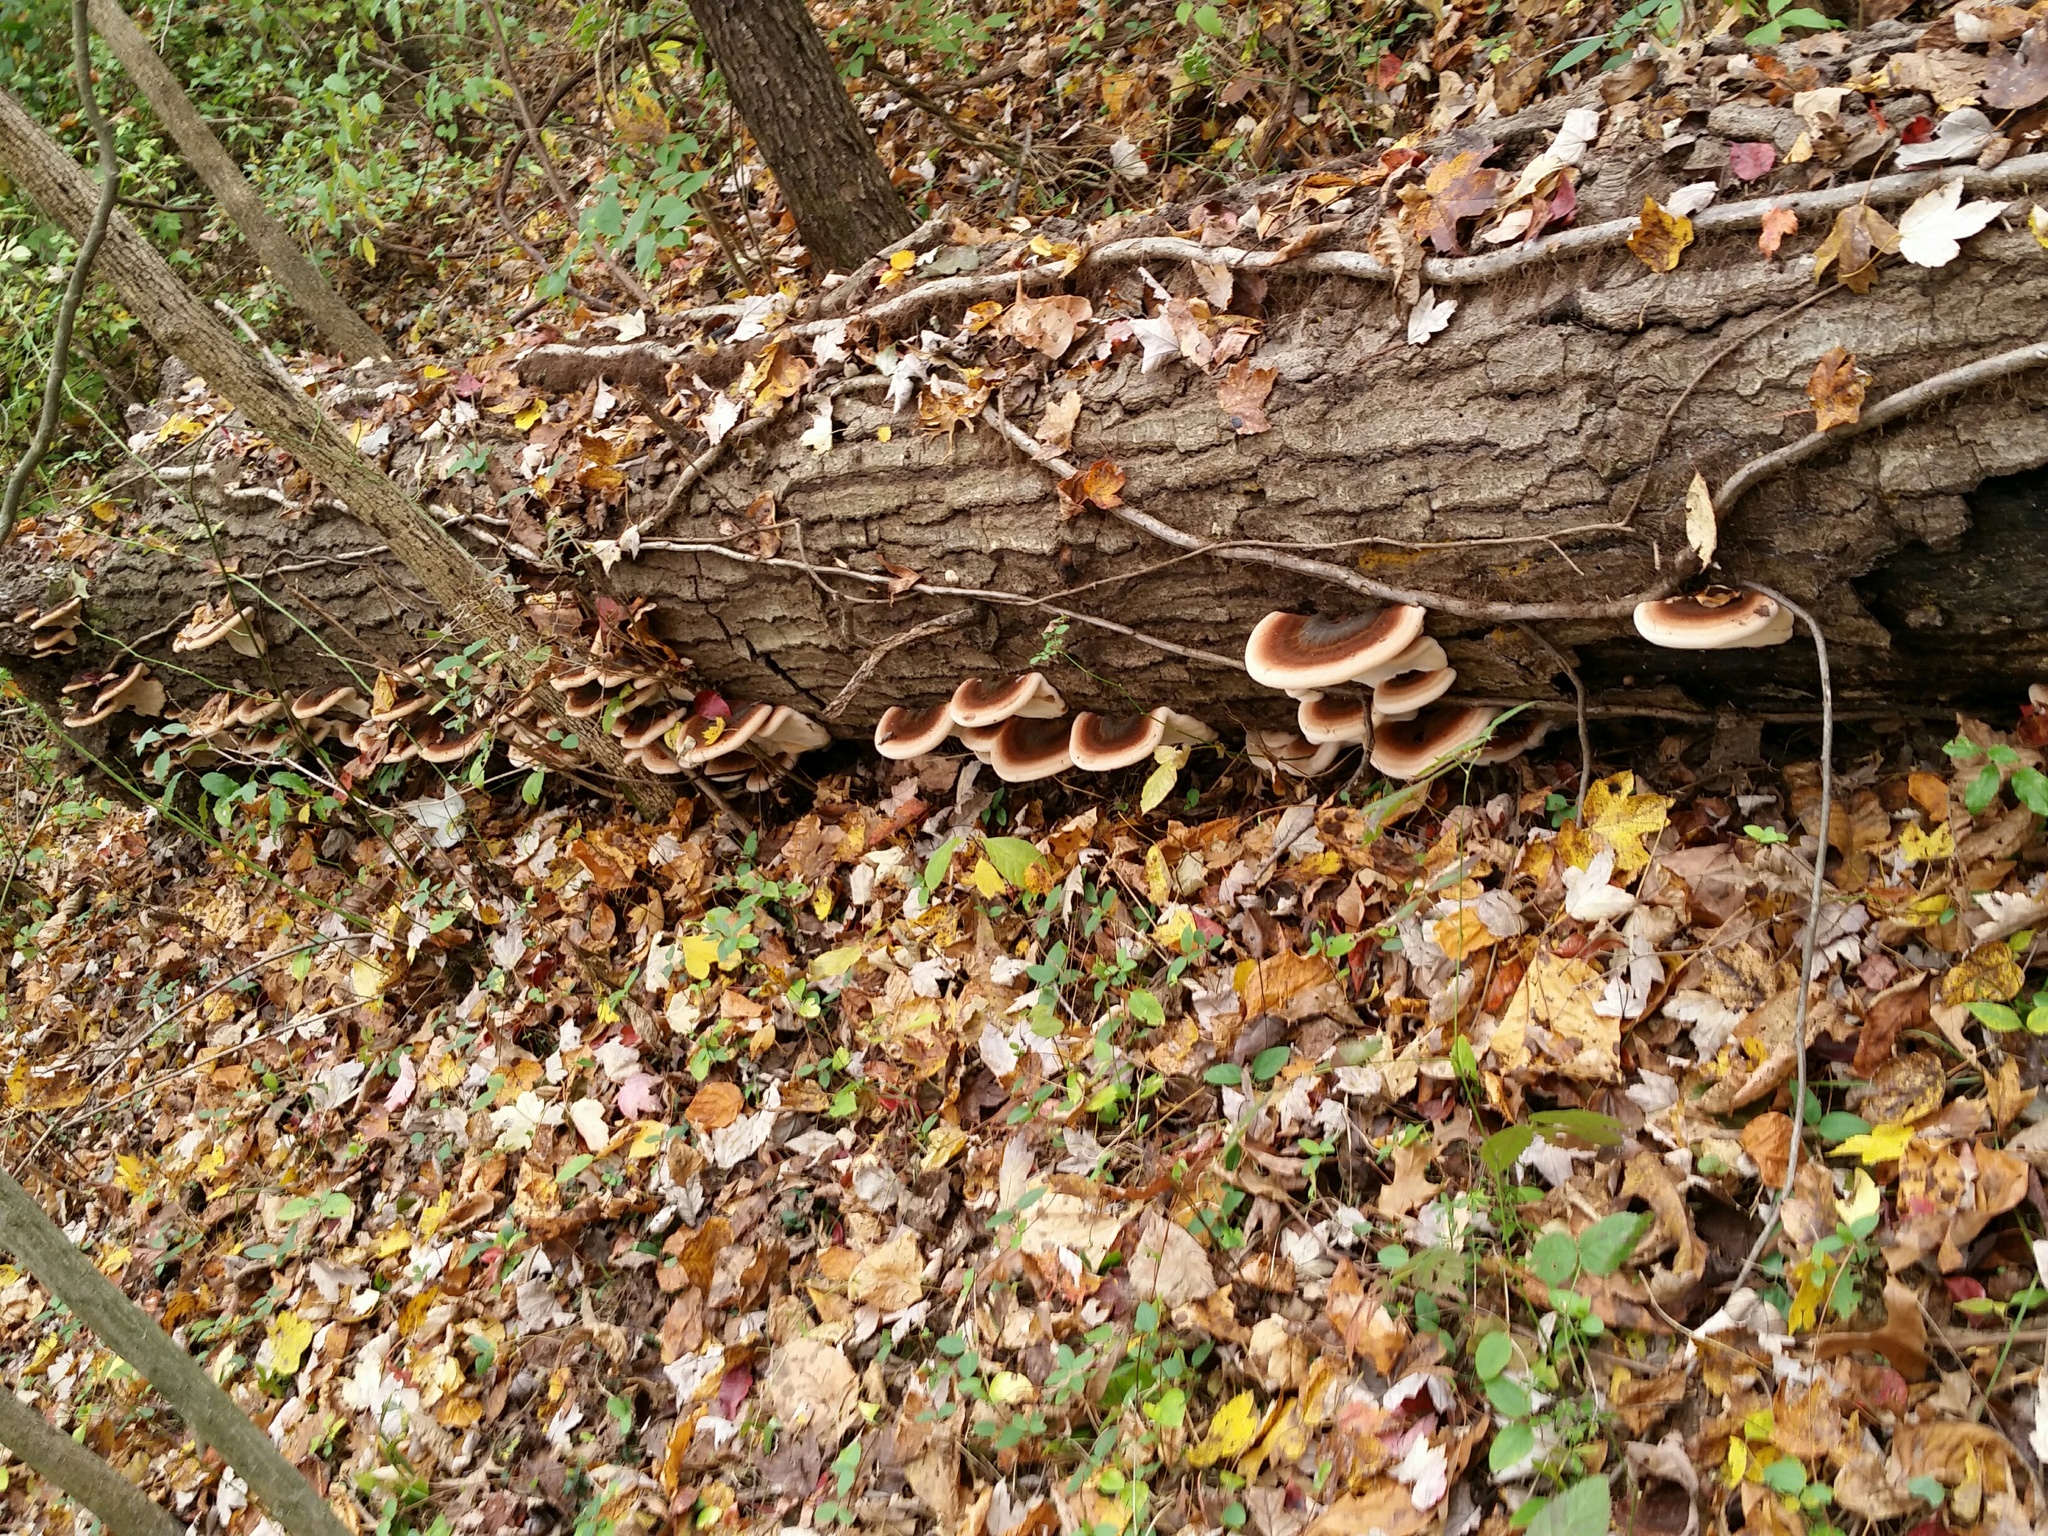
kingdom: Fungi
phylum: Basidiomycota
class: Agaricomycetes
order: Polyporales
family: Ischnodermataceae
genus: Ischnoderma
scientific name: Ischnoderma resinosum
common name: Resinous polypore
